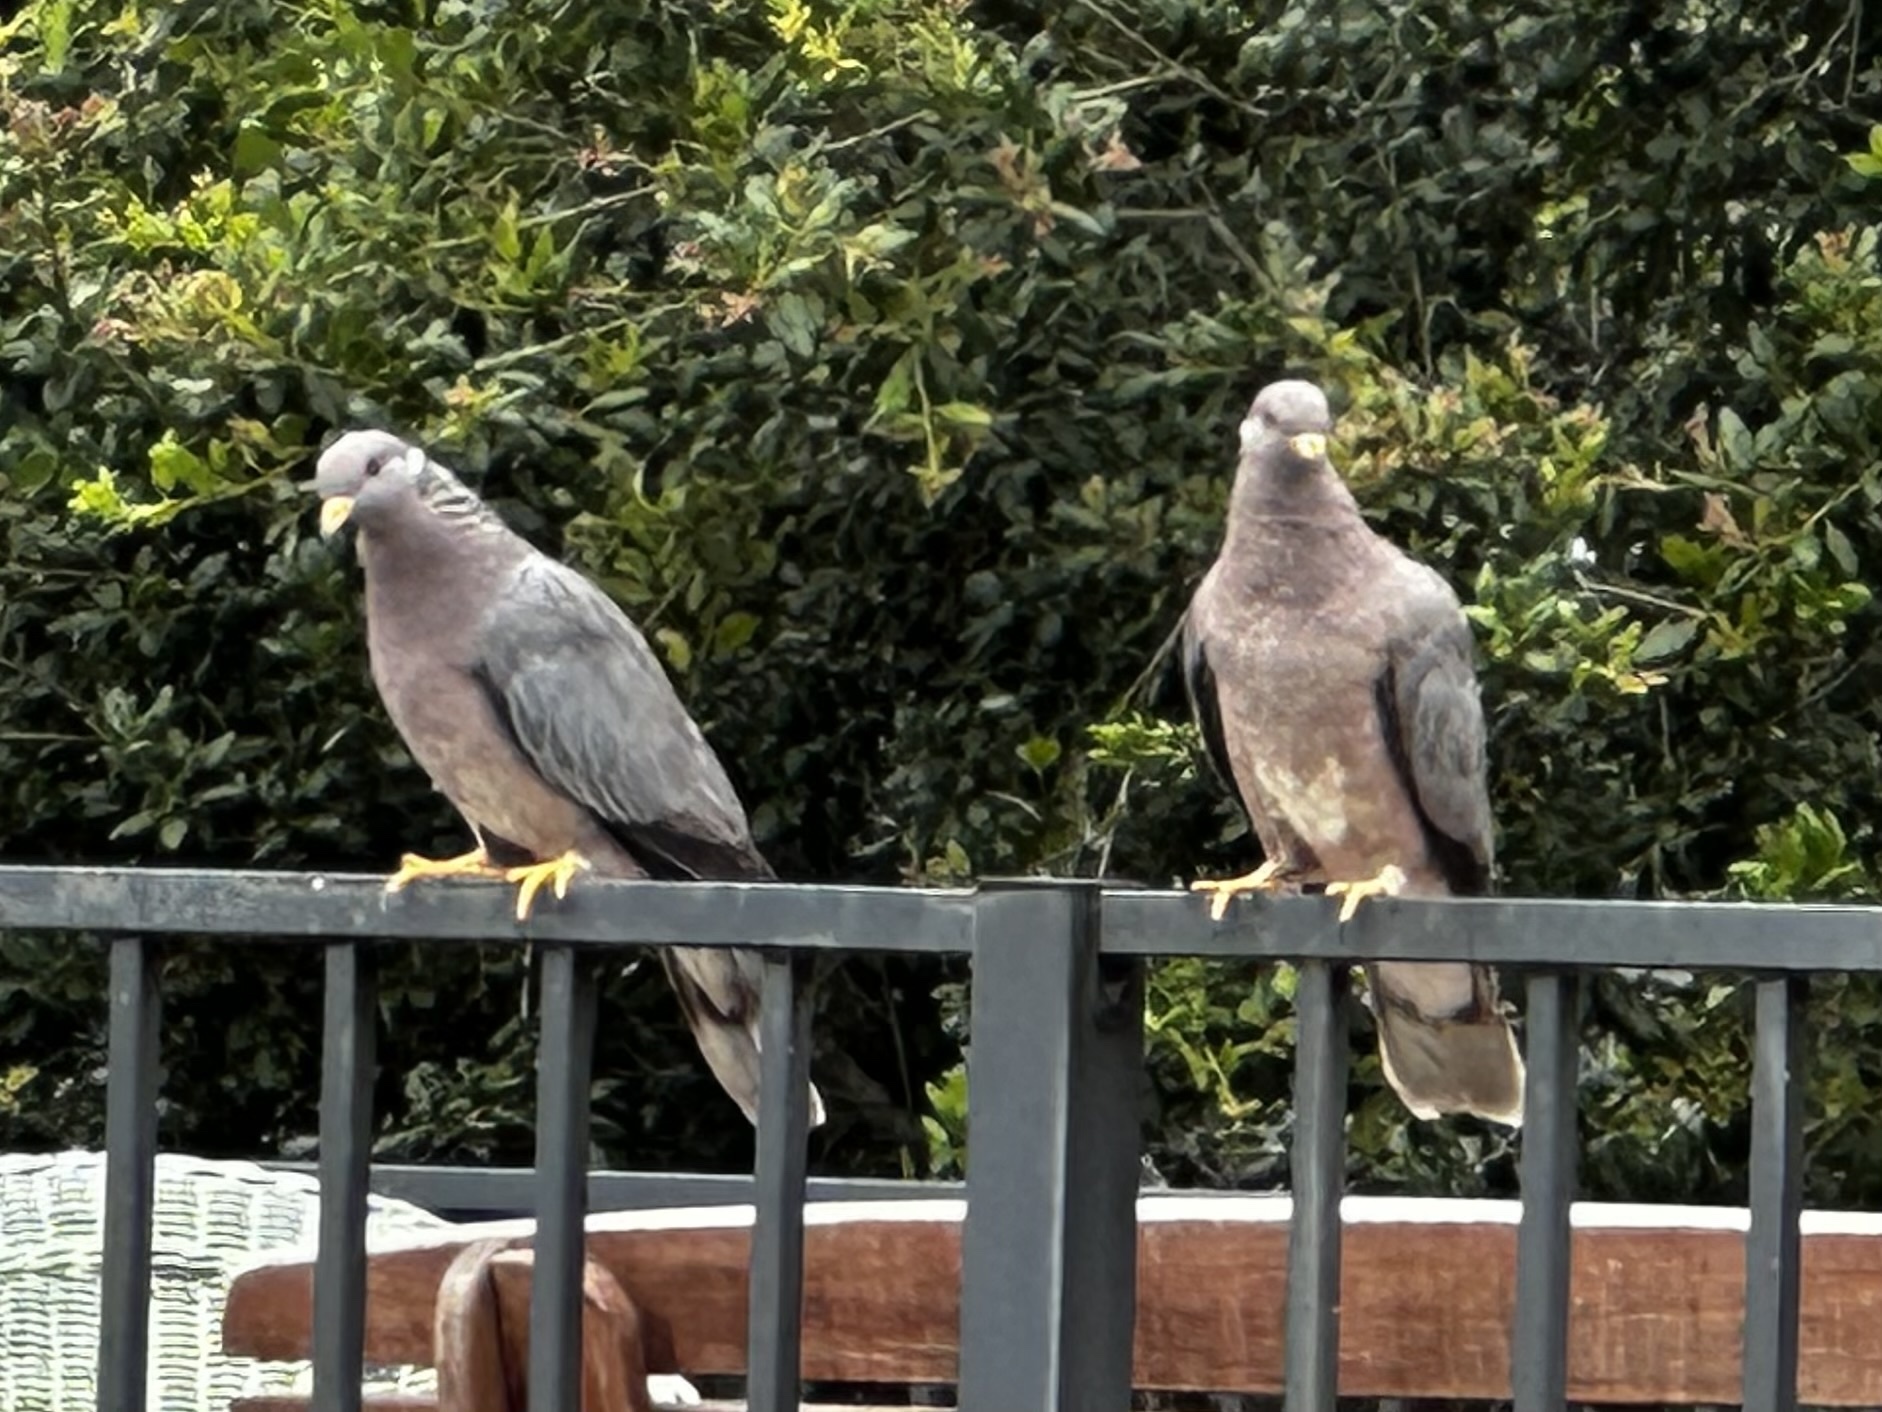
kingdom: Animalia
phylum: Chordata
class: Aves
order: Columbiformes
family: Columbidae
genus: Patagioenas
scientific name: Patagioenas fasciata
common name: Band-tailed pigeon
